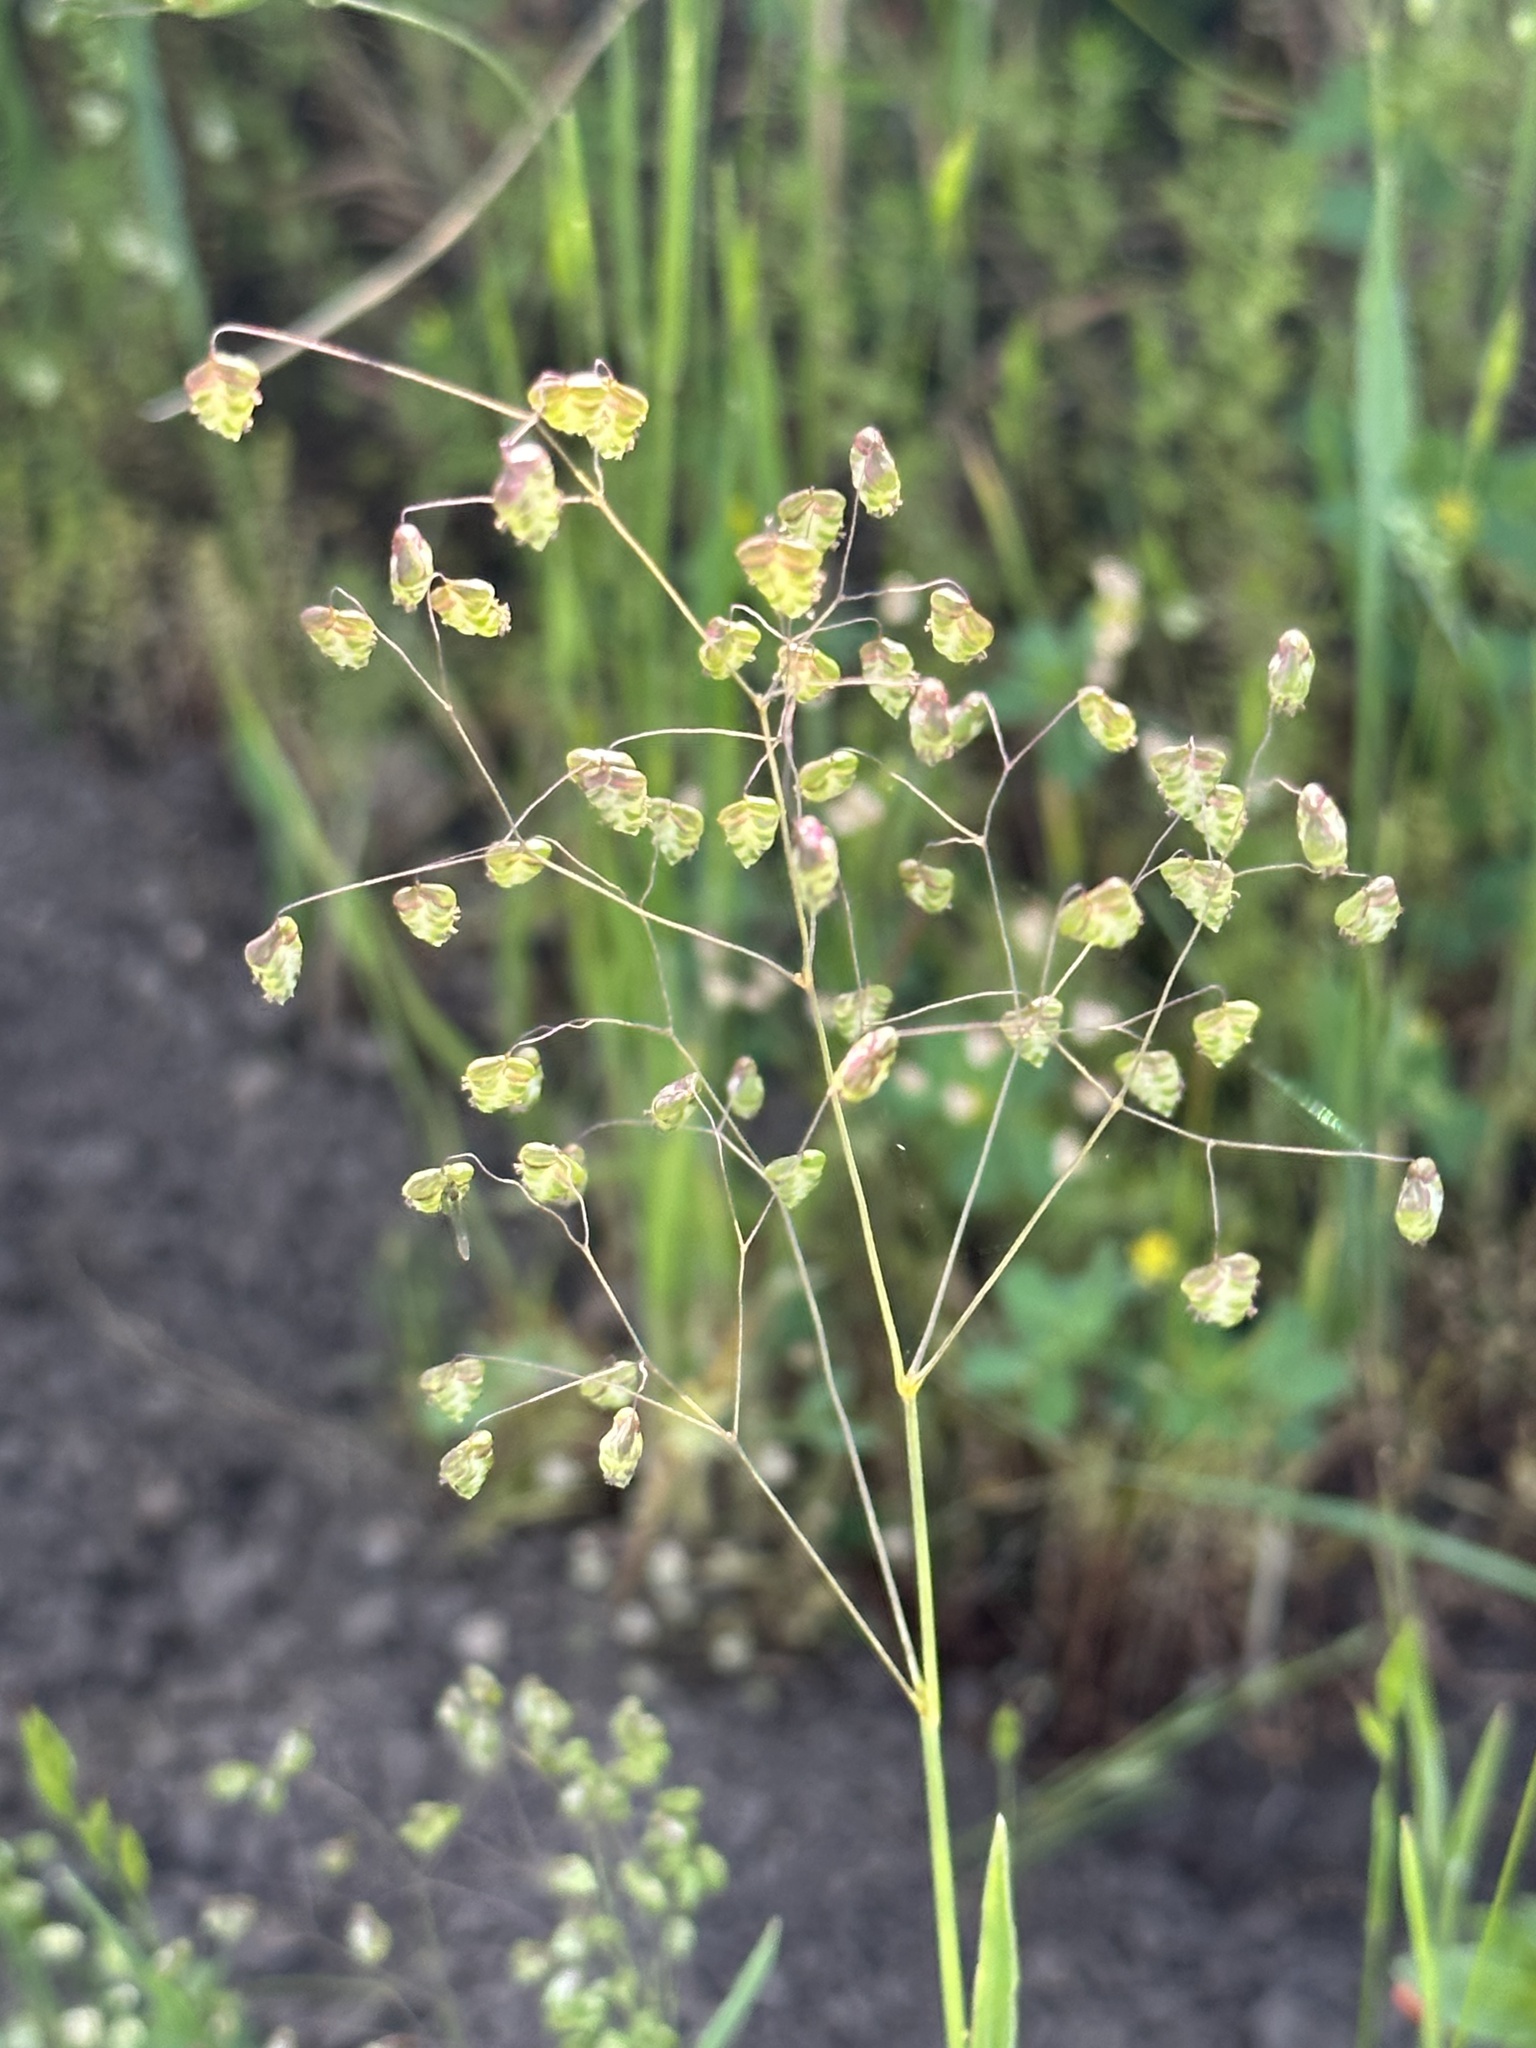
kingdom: Plantae
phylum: Tracheophyta
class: Liliopsida
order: Poales
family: Poaceae
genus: Briza
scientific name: Briza minor
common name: Lesser quaking-grass
